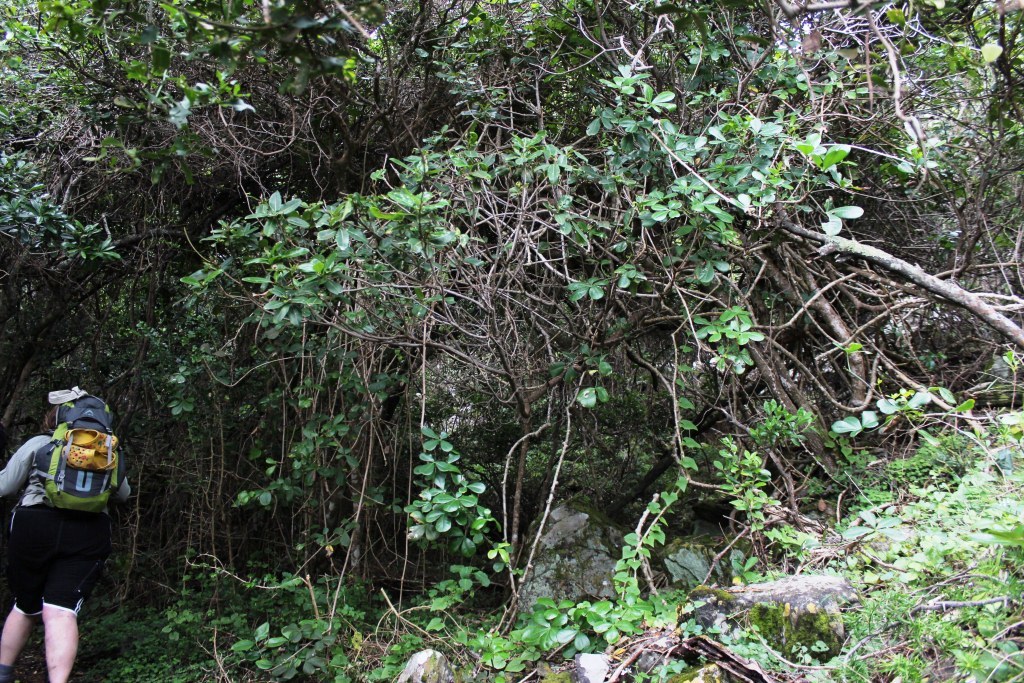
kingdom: Plantae
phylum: Tracheophyta
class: Magnoliopsida
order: Apiales
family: Araliaceae
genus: Cussonia
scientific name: Cussonia thyrsiflora
